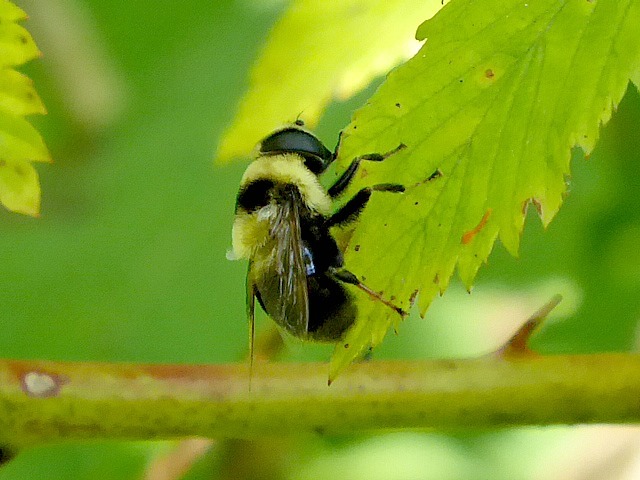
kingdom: Animalia
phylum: Arthropoda
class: Insecta
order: Diptera
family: Syrphidae
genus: Eristalis
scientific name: Eristalis flavipes
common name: Orange-legged drone fly
